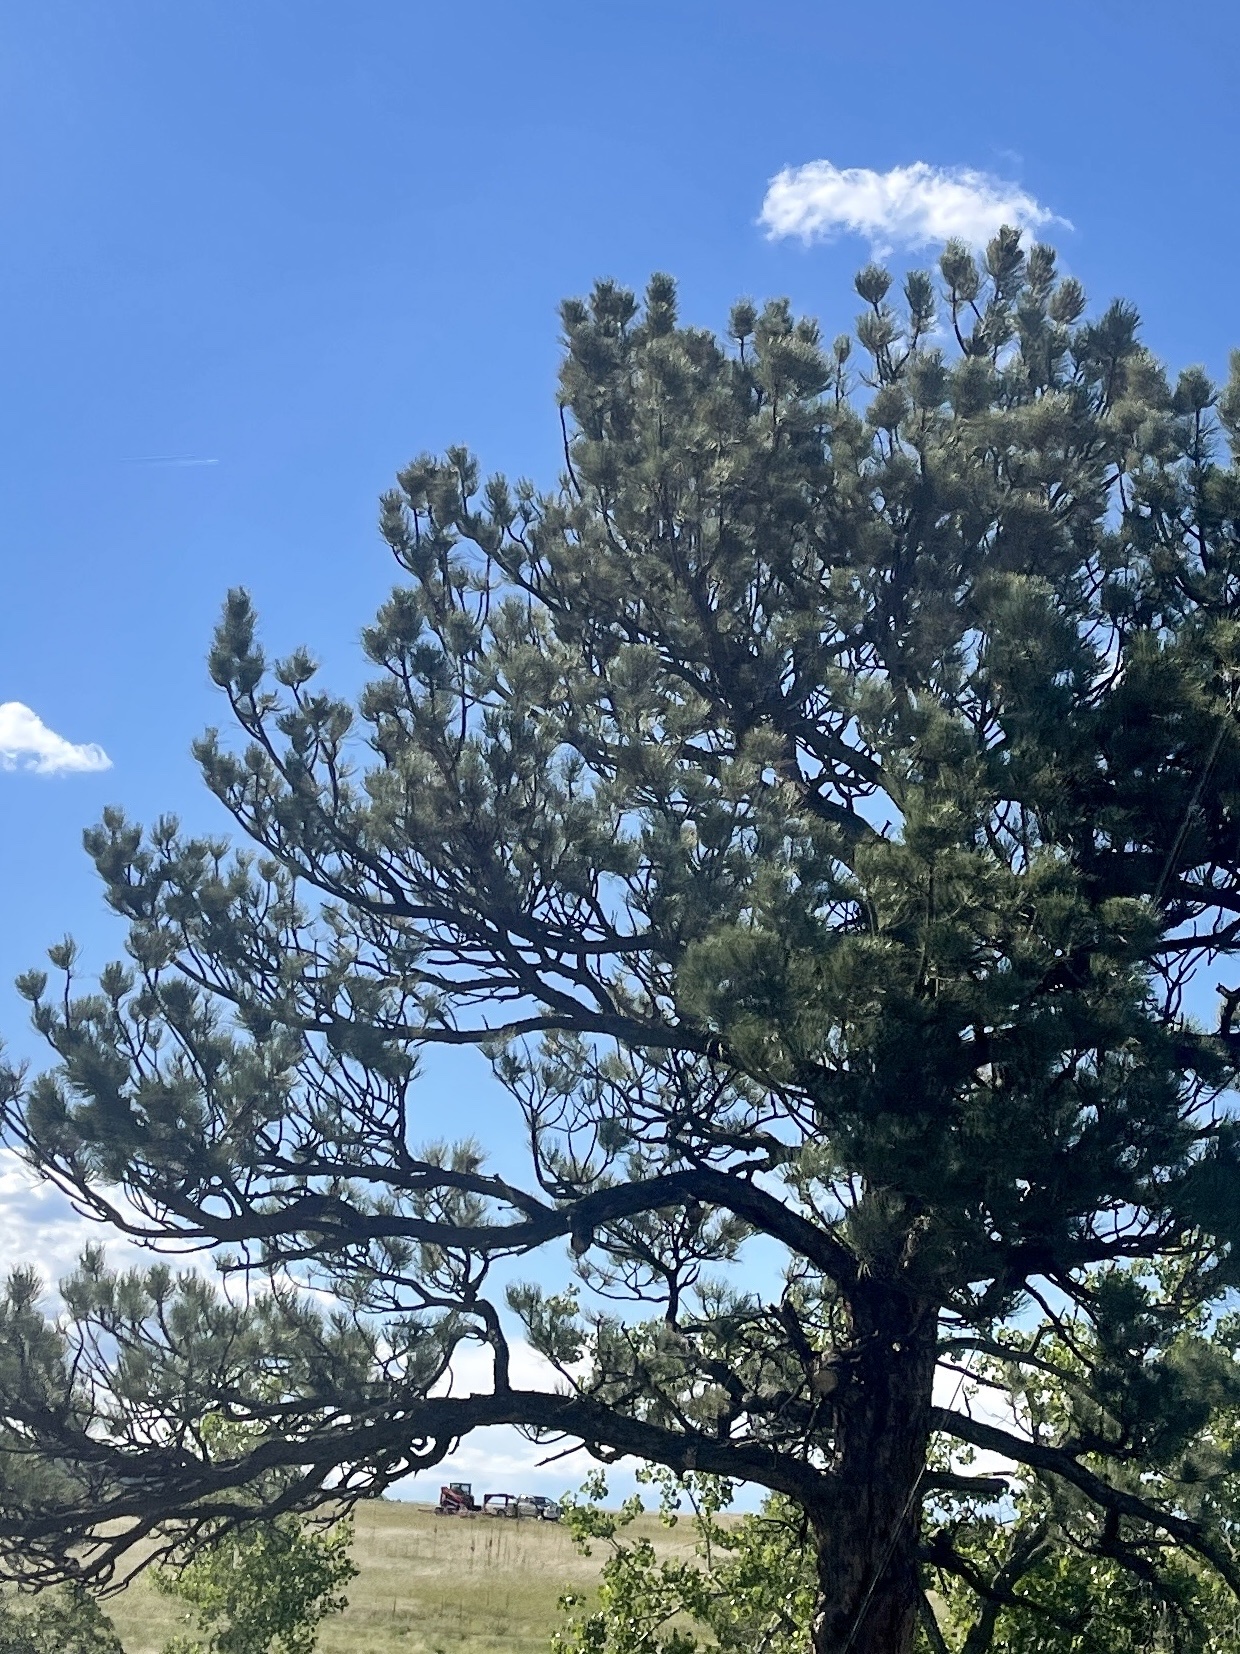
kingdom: Plantae
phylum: Tracheophyta
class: Pinopsida
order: Pinales
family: Pinaceae
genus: Pinus
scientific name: Pinus ponderosa
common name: Western yellow-pine
